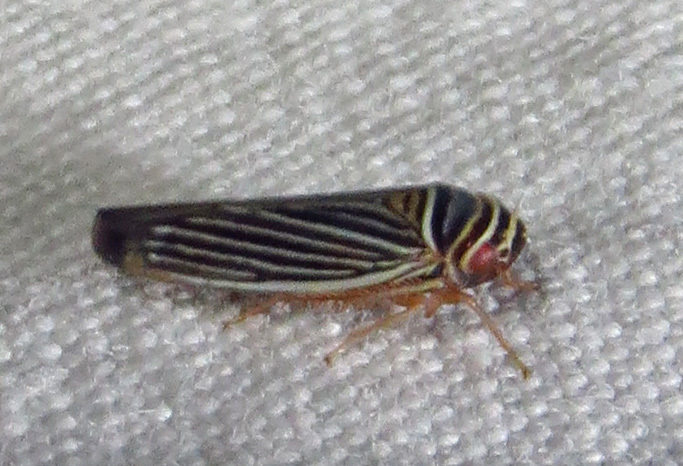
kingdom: Animalia
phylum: Arthropoda
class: Insecta
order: Hemiptera
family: Cicadellidae
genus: Tylozygus
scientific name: Tylozygus bifidus
